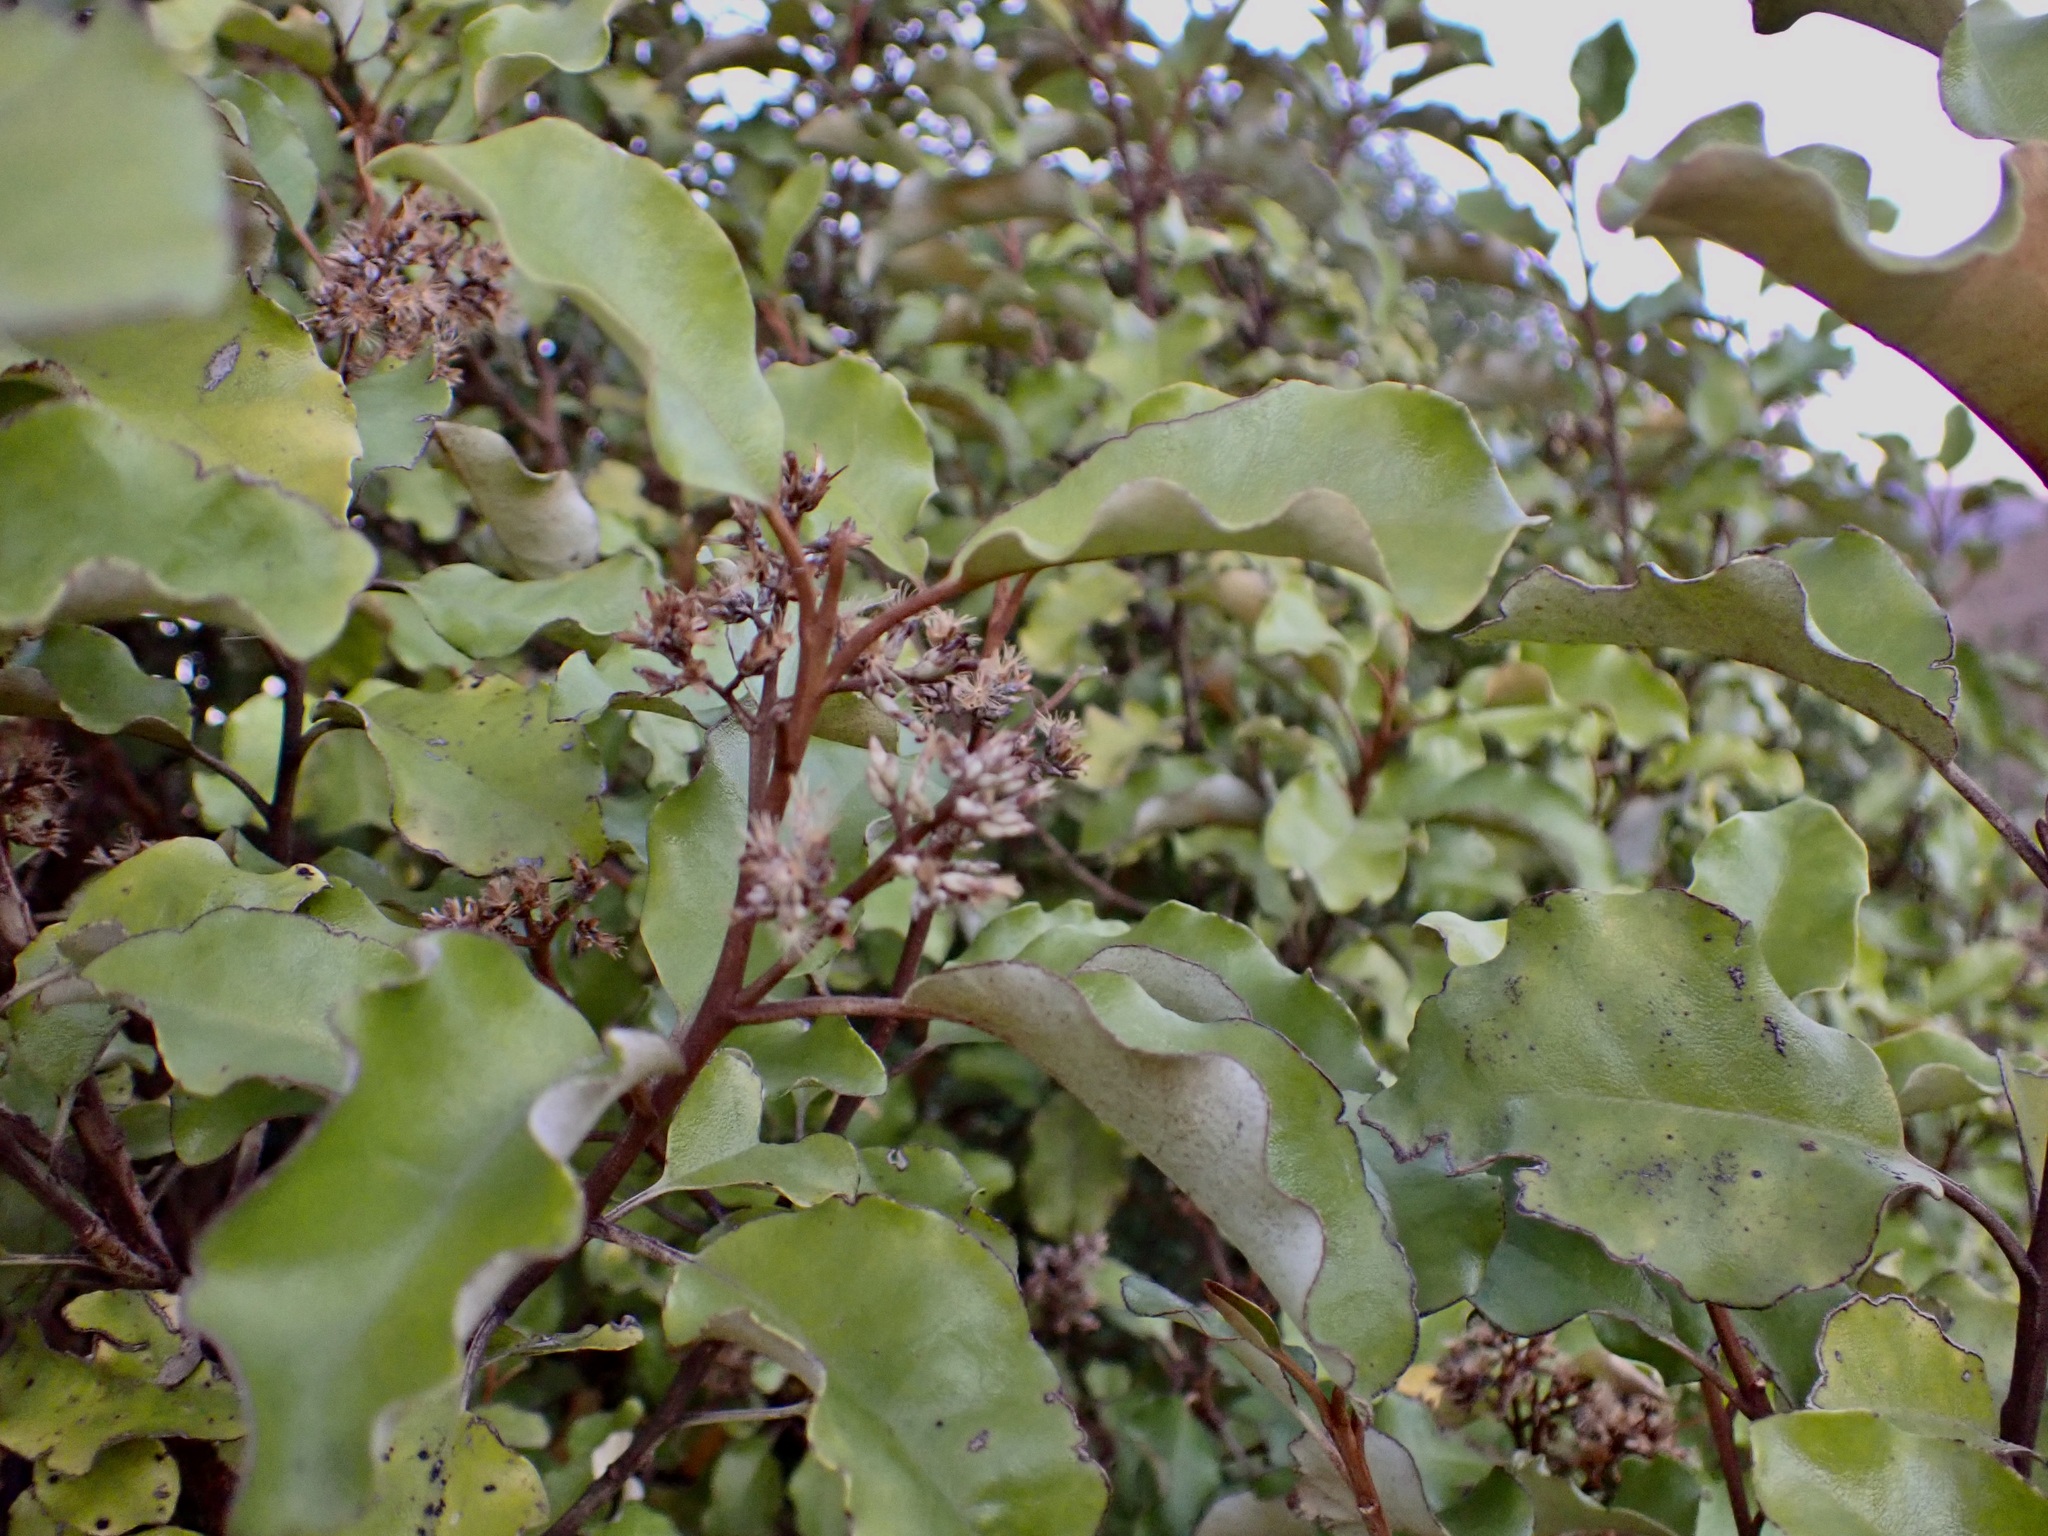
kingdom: Plantae
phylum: Tracheophyta
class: Magnoliopsida
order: Asterales
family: Asteraceae
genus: Olearia
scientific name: Olearia paniculata
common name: Akiraho
